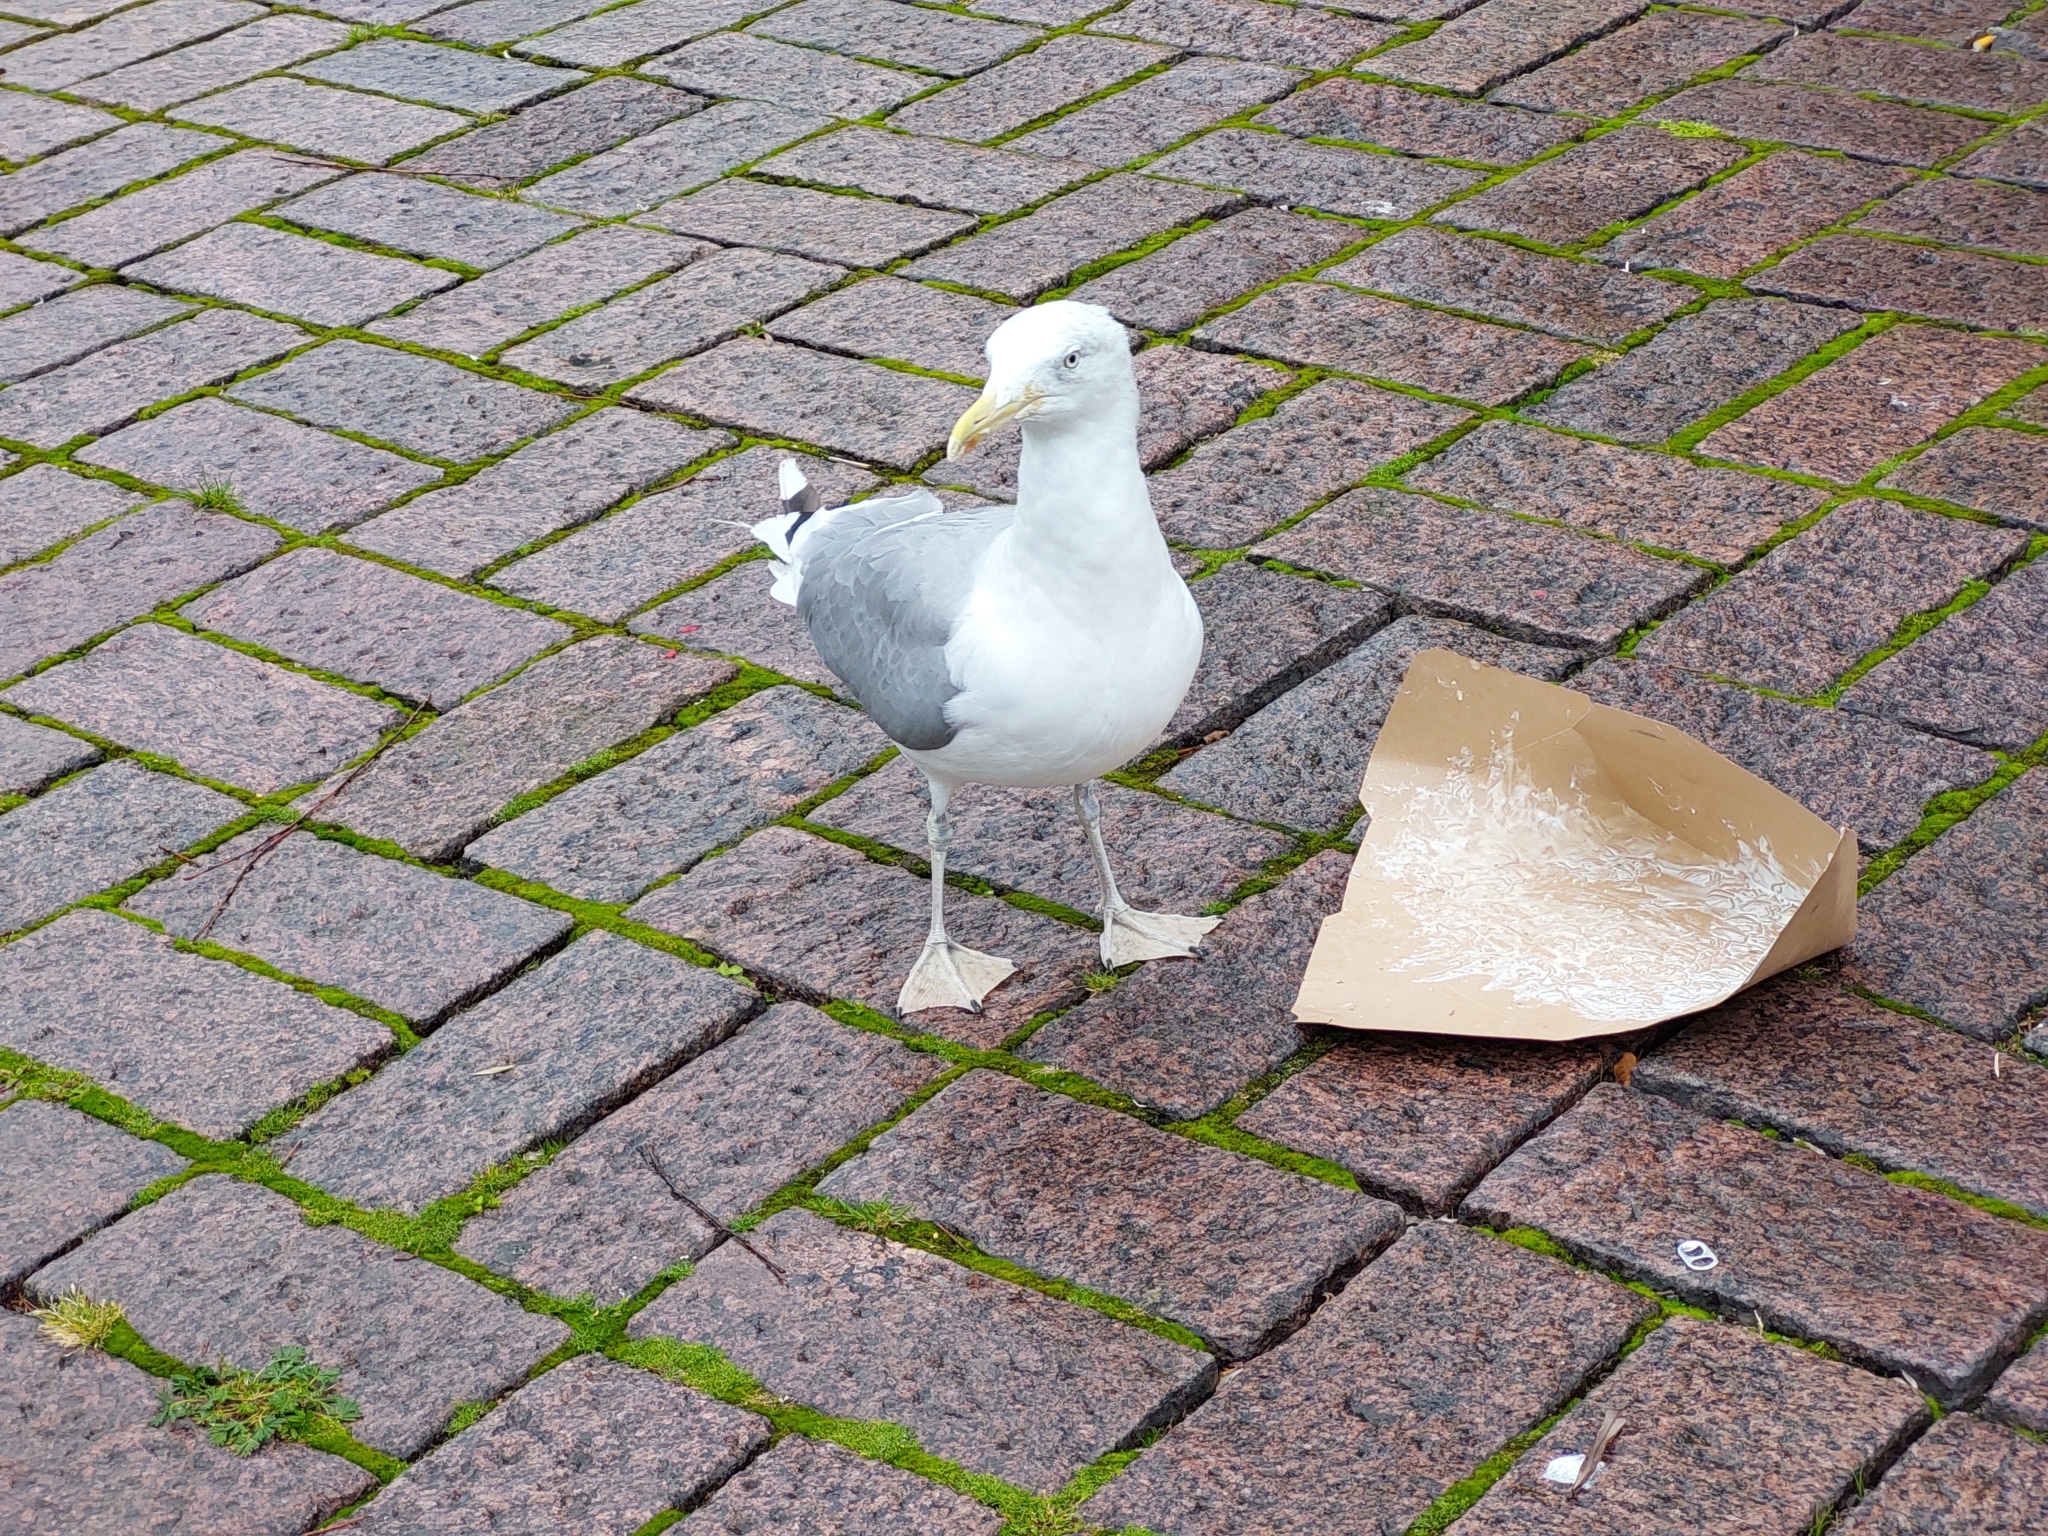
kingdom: Animalia
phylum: Chordata
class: Aves
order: Charadriiformes
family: Laridae
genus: Larus
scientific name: Larus argentatus
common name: Herring gull
